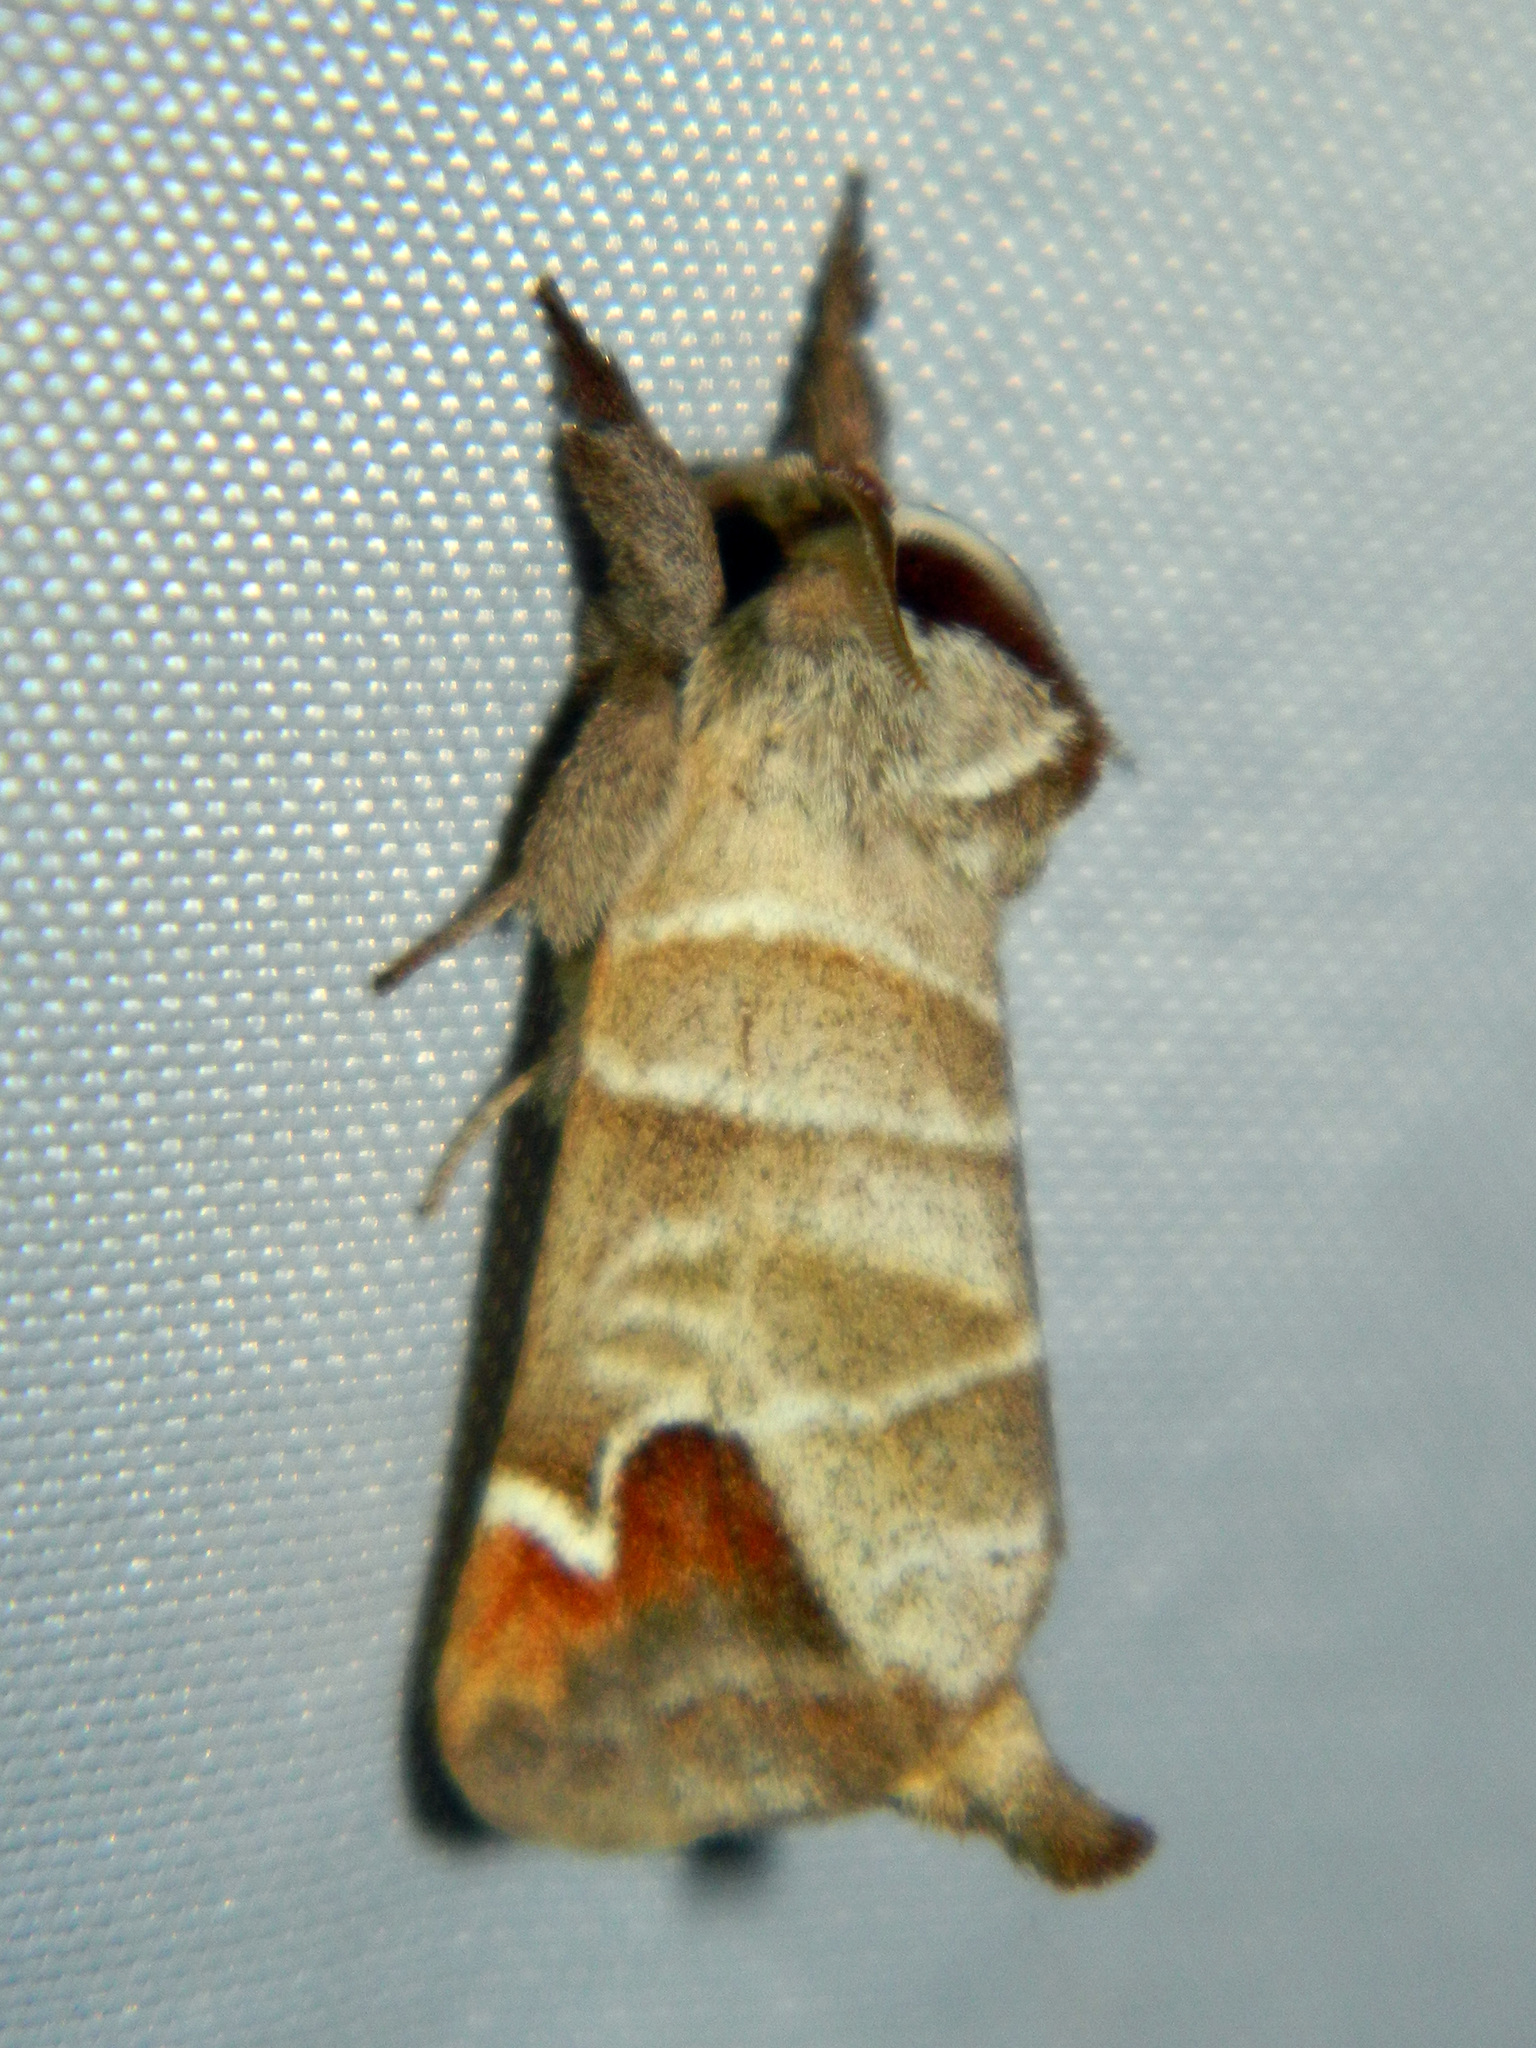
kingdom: Animalia
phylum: Arthropoda
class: Insecta
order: Lepidoptera
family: Notodontidae
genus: Clostera
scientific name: Clostera albosigma
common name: Sigmoid prominent
